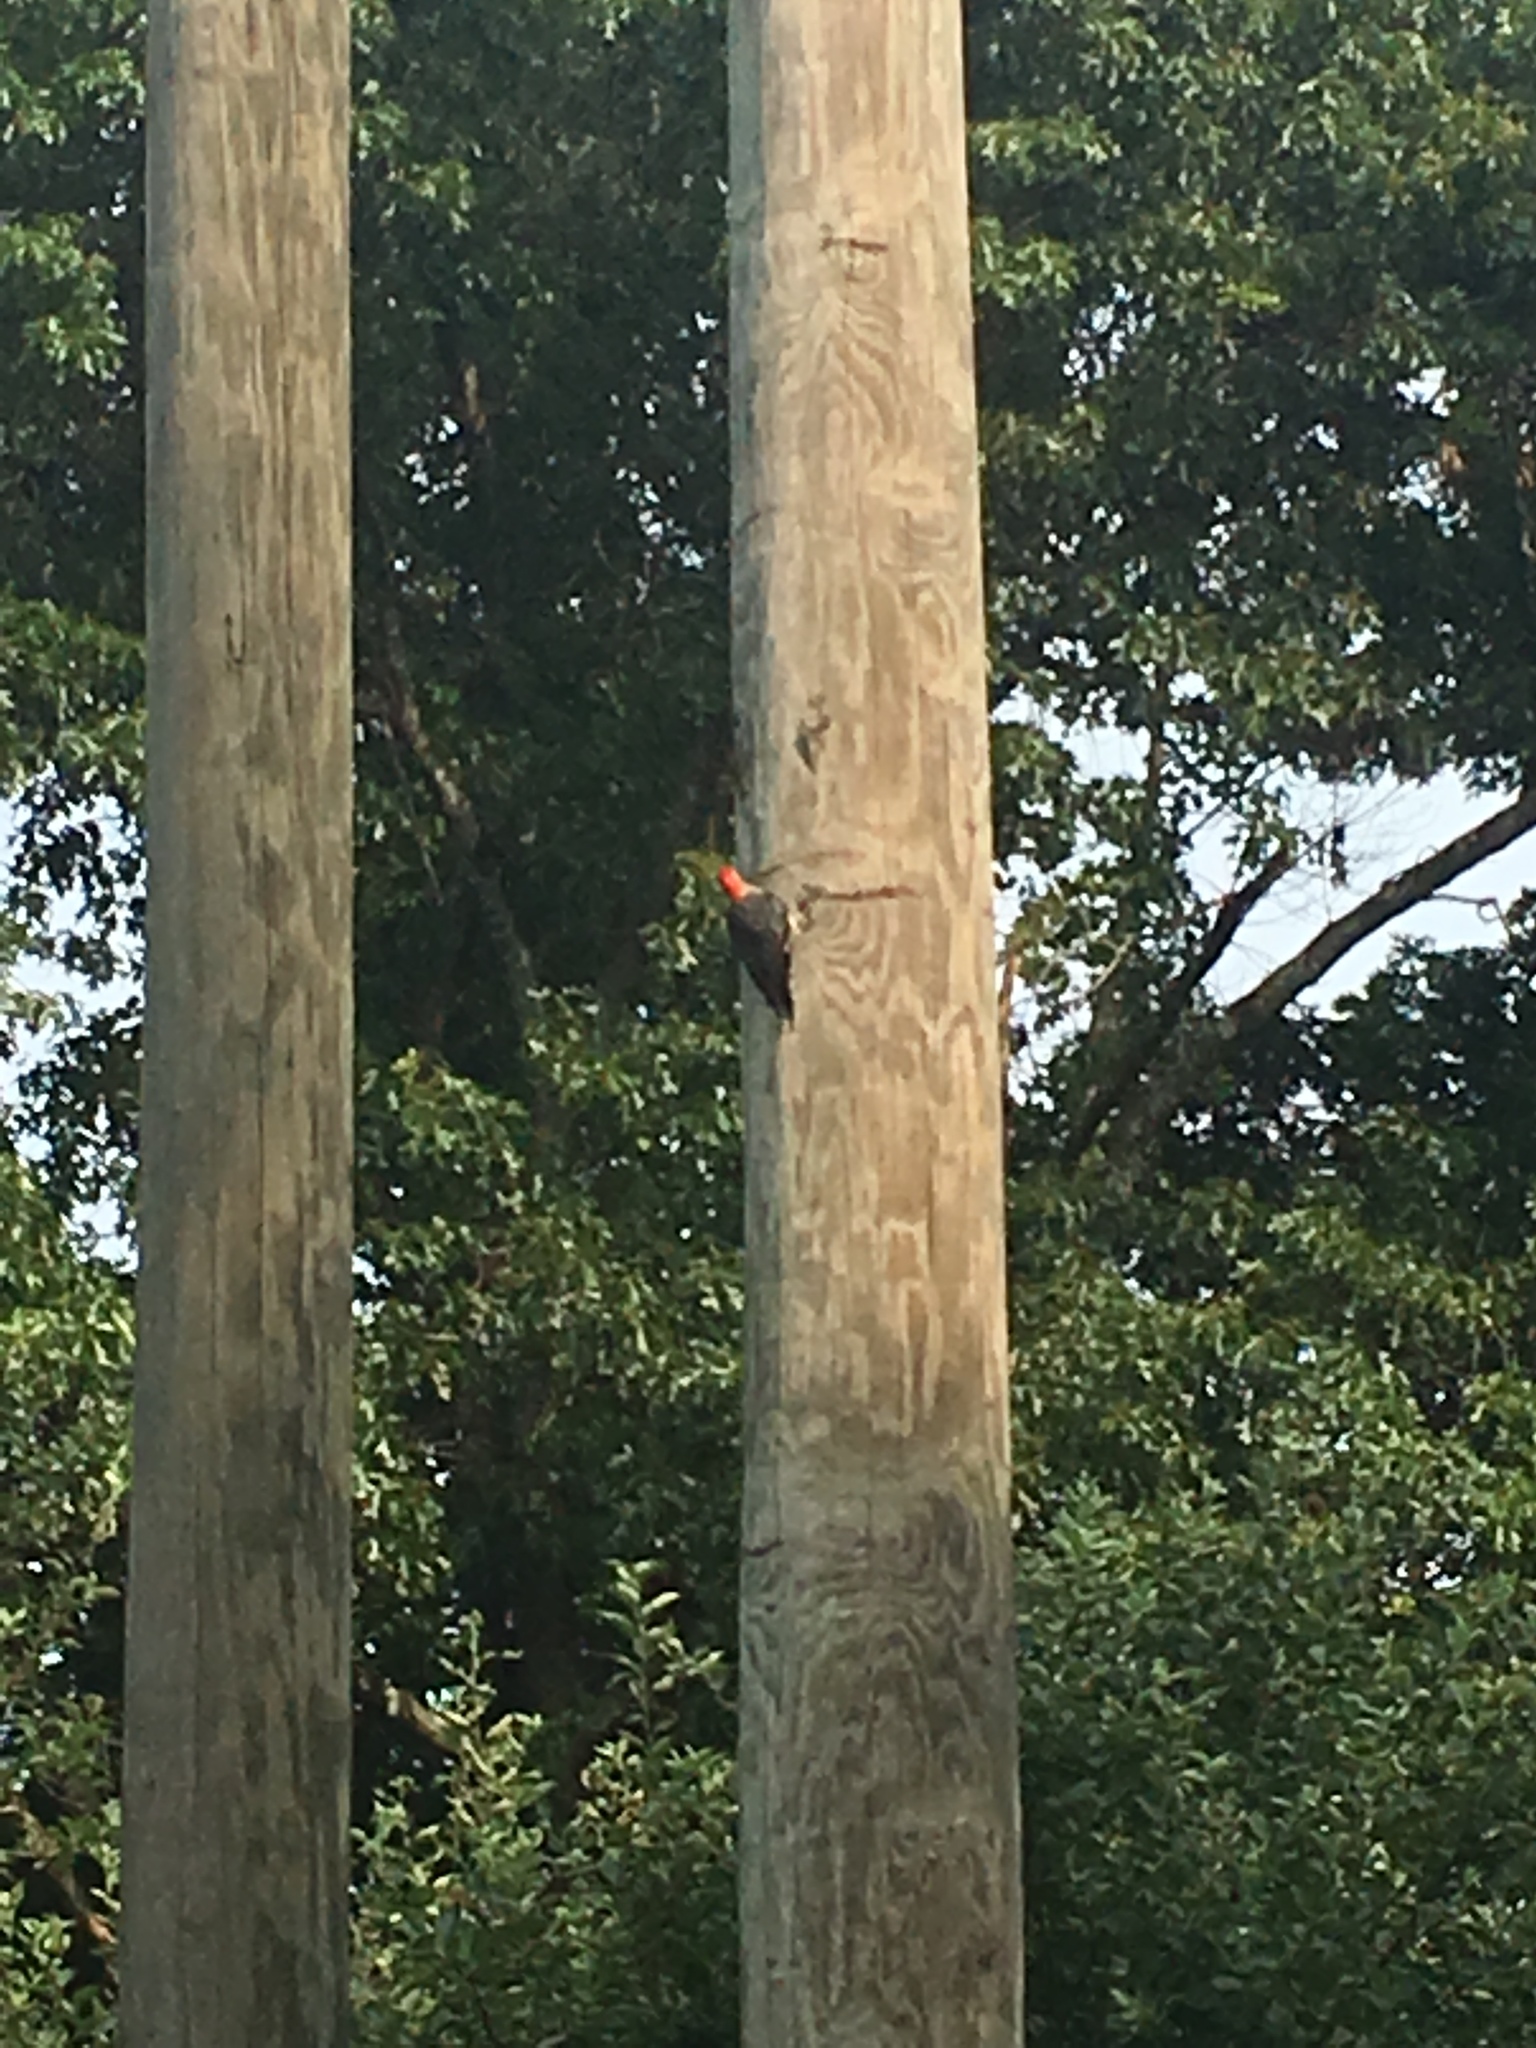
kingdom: Animalia
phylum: Chordata
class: Aves
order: Piciformes
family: Picidae
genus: Melanerpes
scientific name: Melanerpes carolinus
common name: Red-bellied woodpecker
